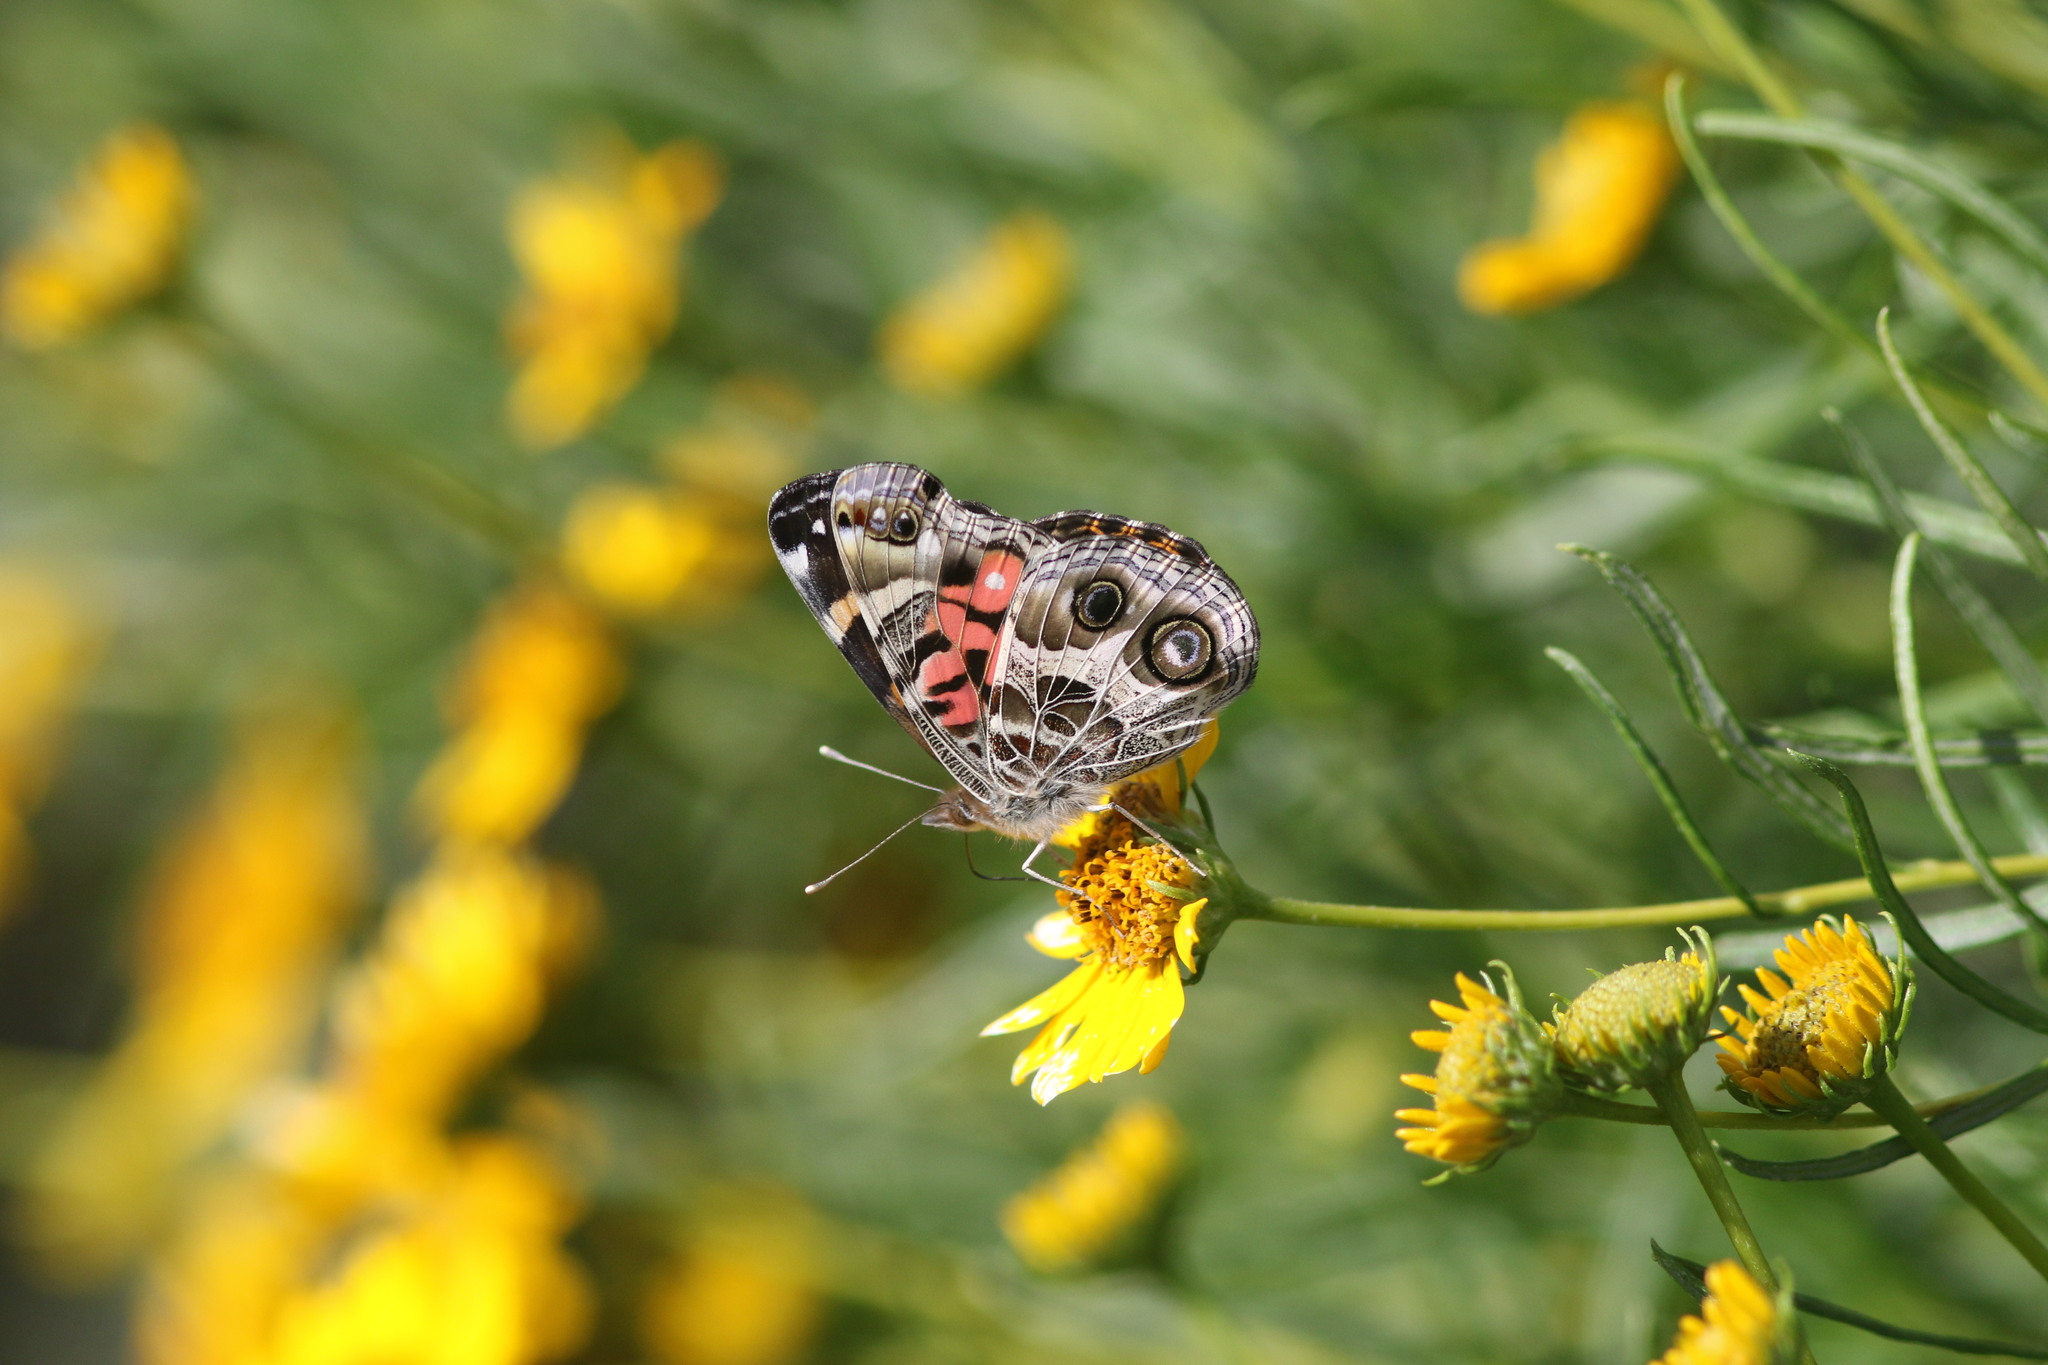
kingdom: Animalia
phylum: Arthropoda
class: Insecta
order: Lepidoptera
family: Nymphalidae
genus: Vanessa
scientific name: Vanessa virginiensis
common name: American lady
